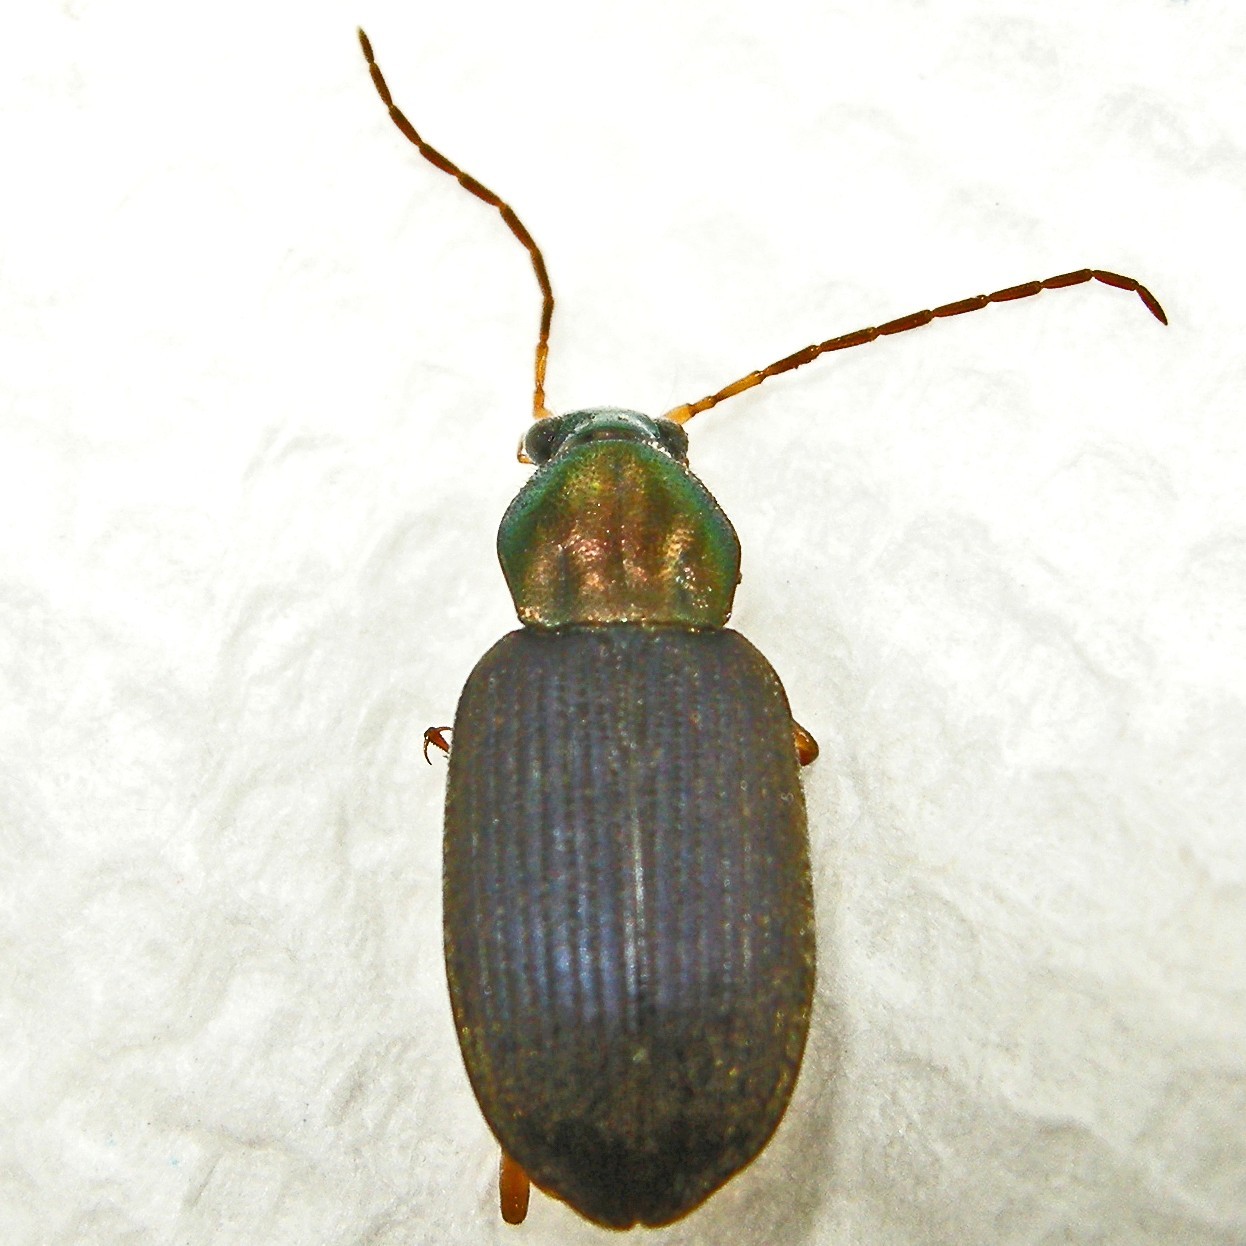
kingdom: Animalia
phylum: Arthropoda
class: Insecta
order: Coleoptera
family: Carabidae
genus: Chlaenius
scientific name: Chlaenius tricolor
